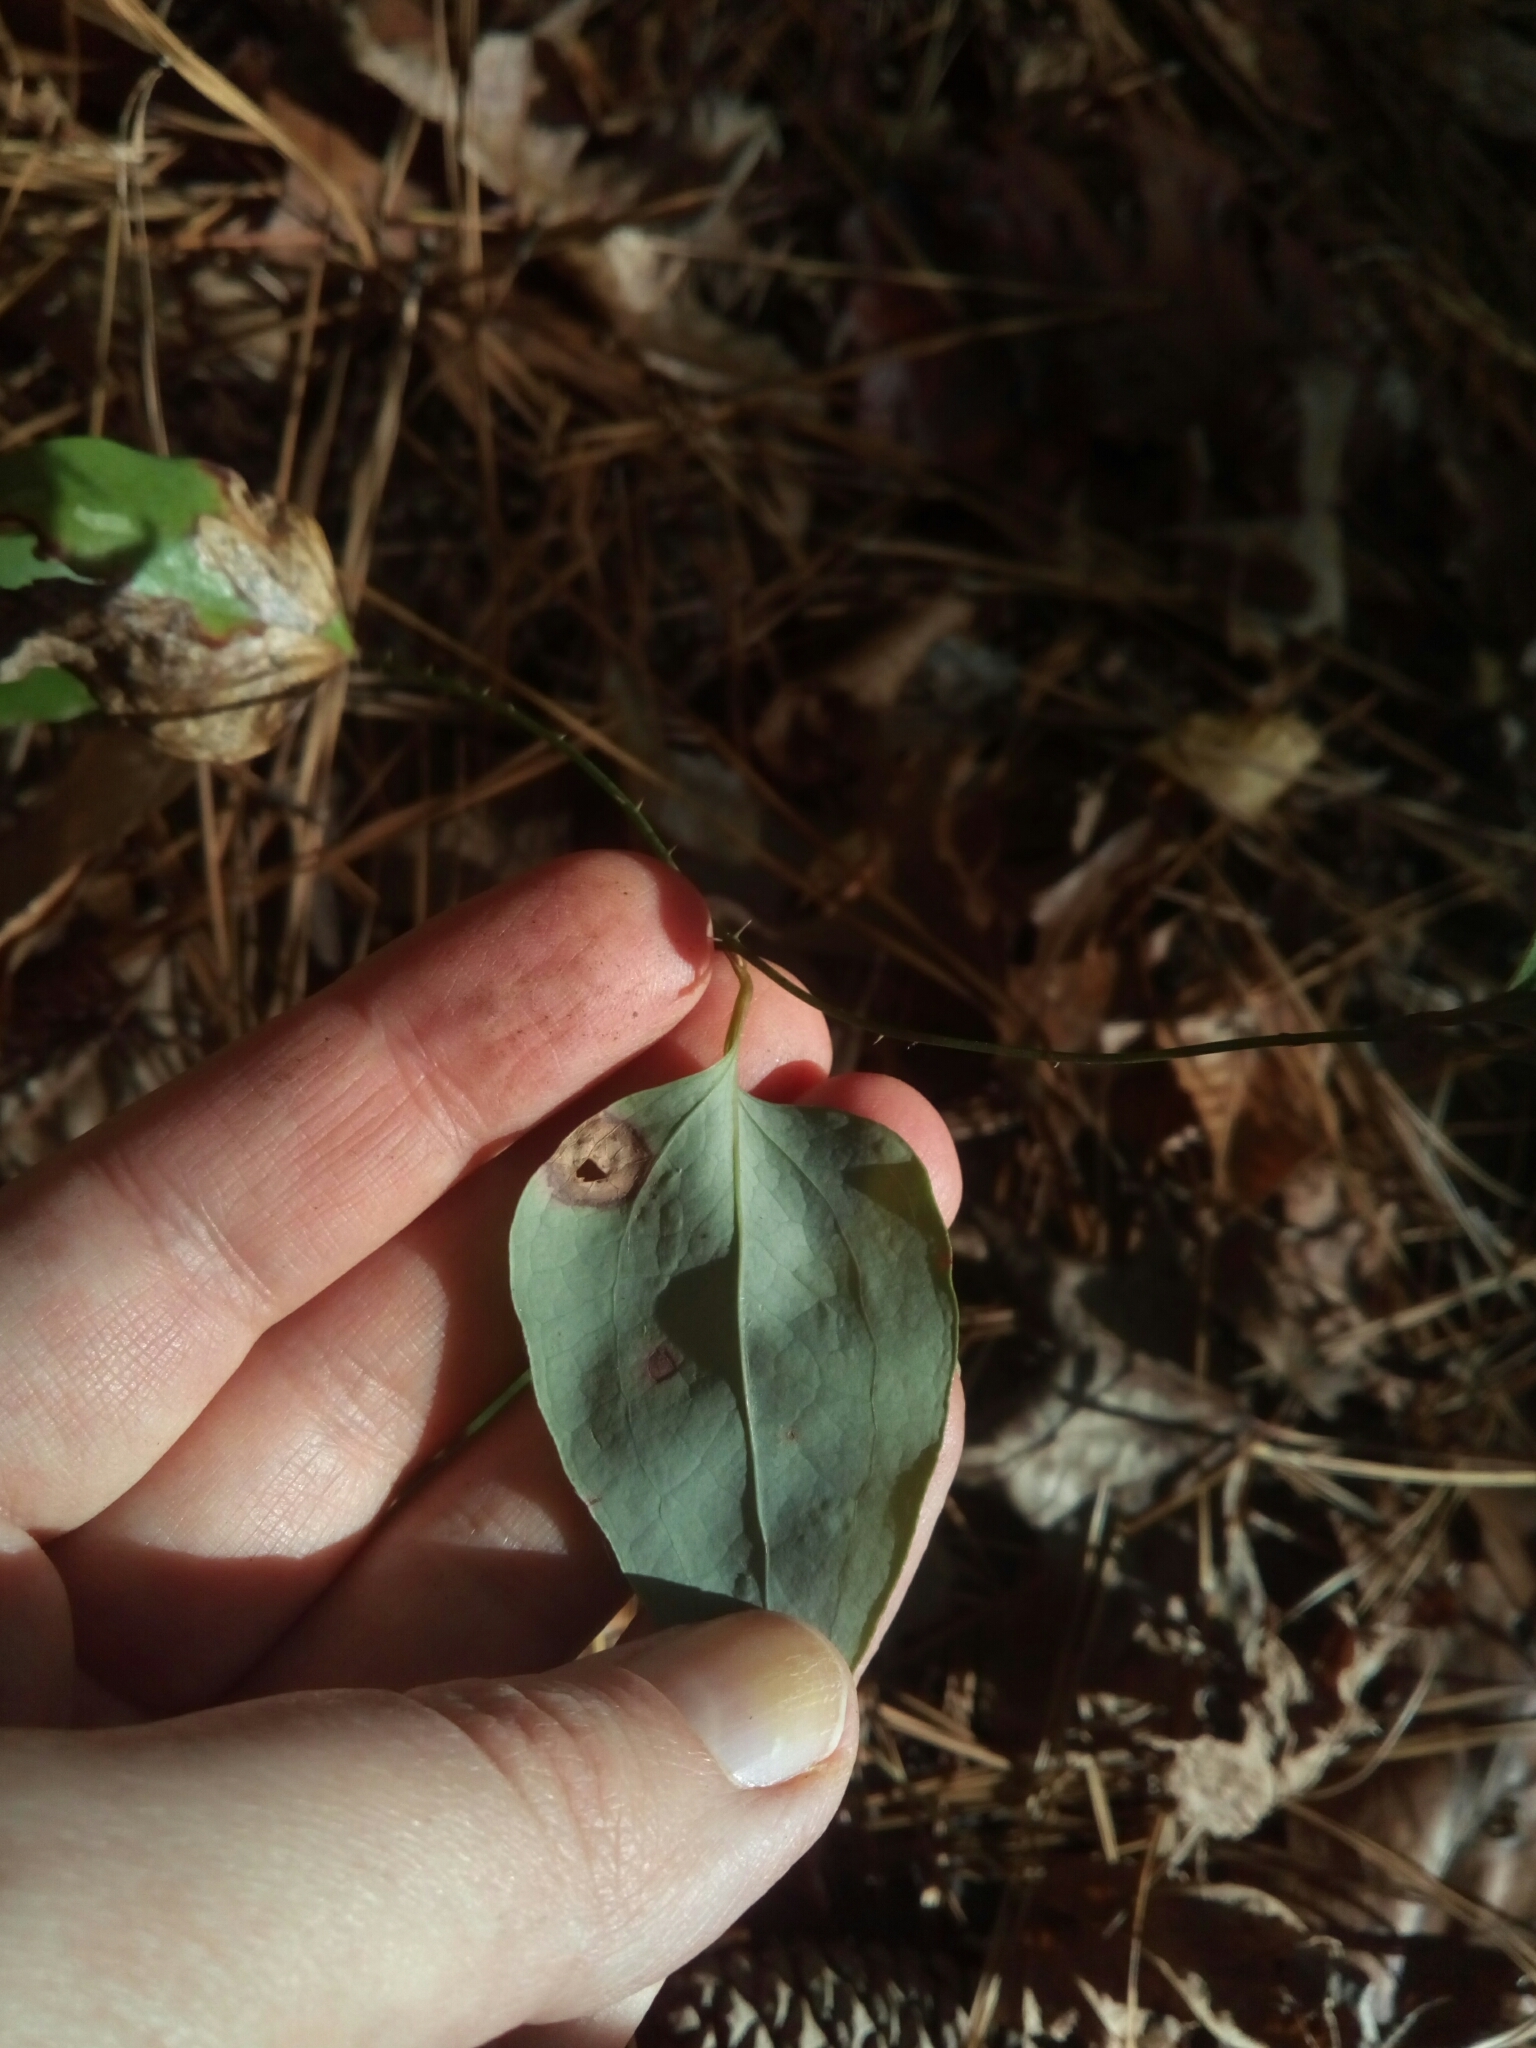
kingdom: Plantae
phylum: Tracheophyta
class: Liliopsida
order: Liliales
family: Smilacaceae
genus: Smilax
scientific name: Smilax glauca
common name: Cat greenbrier
